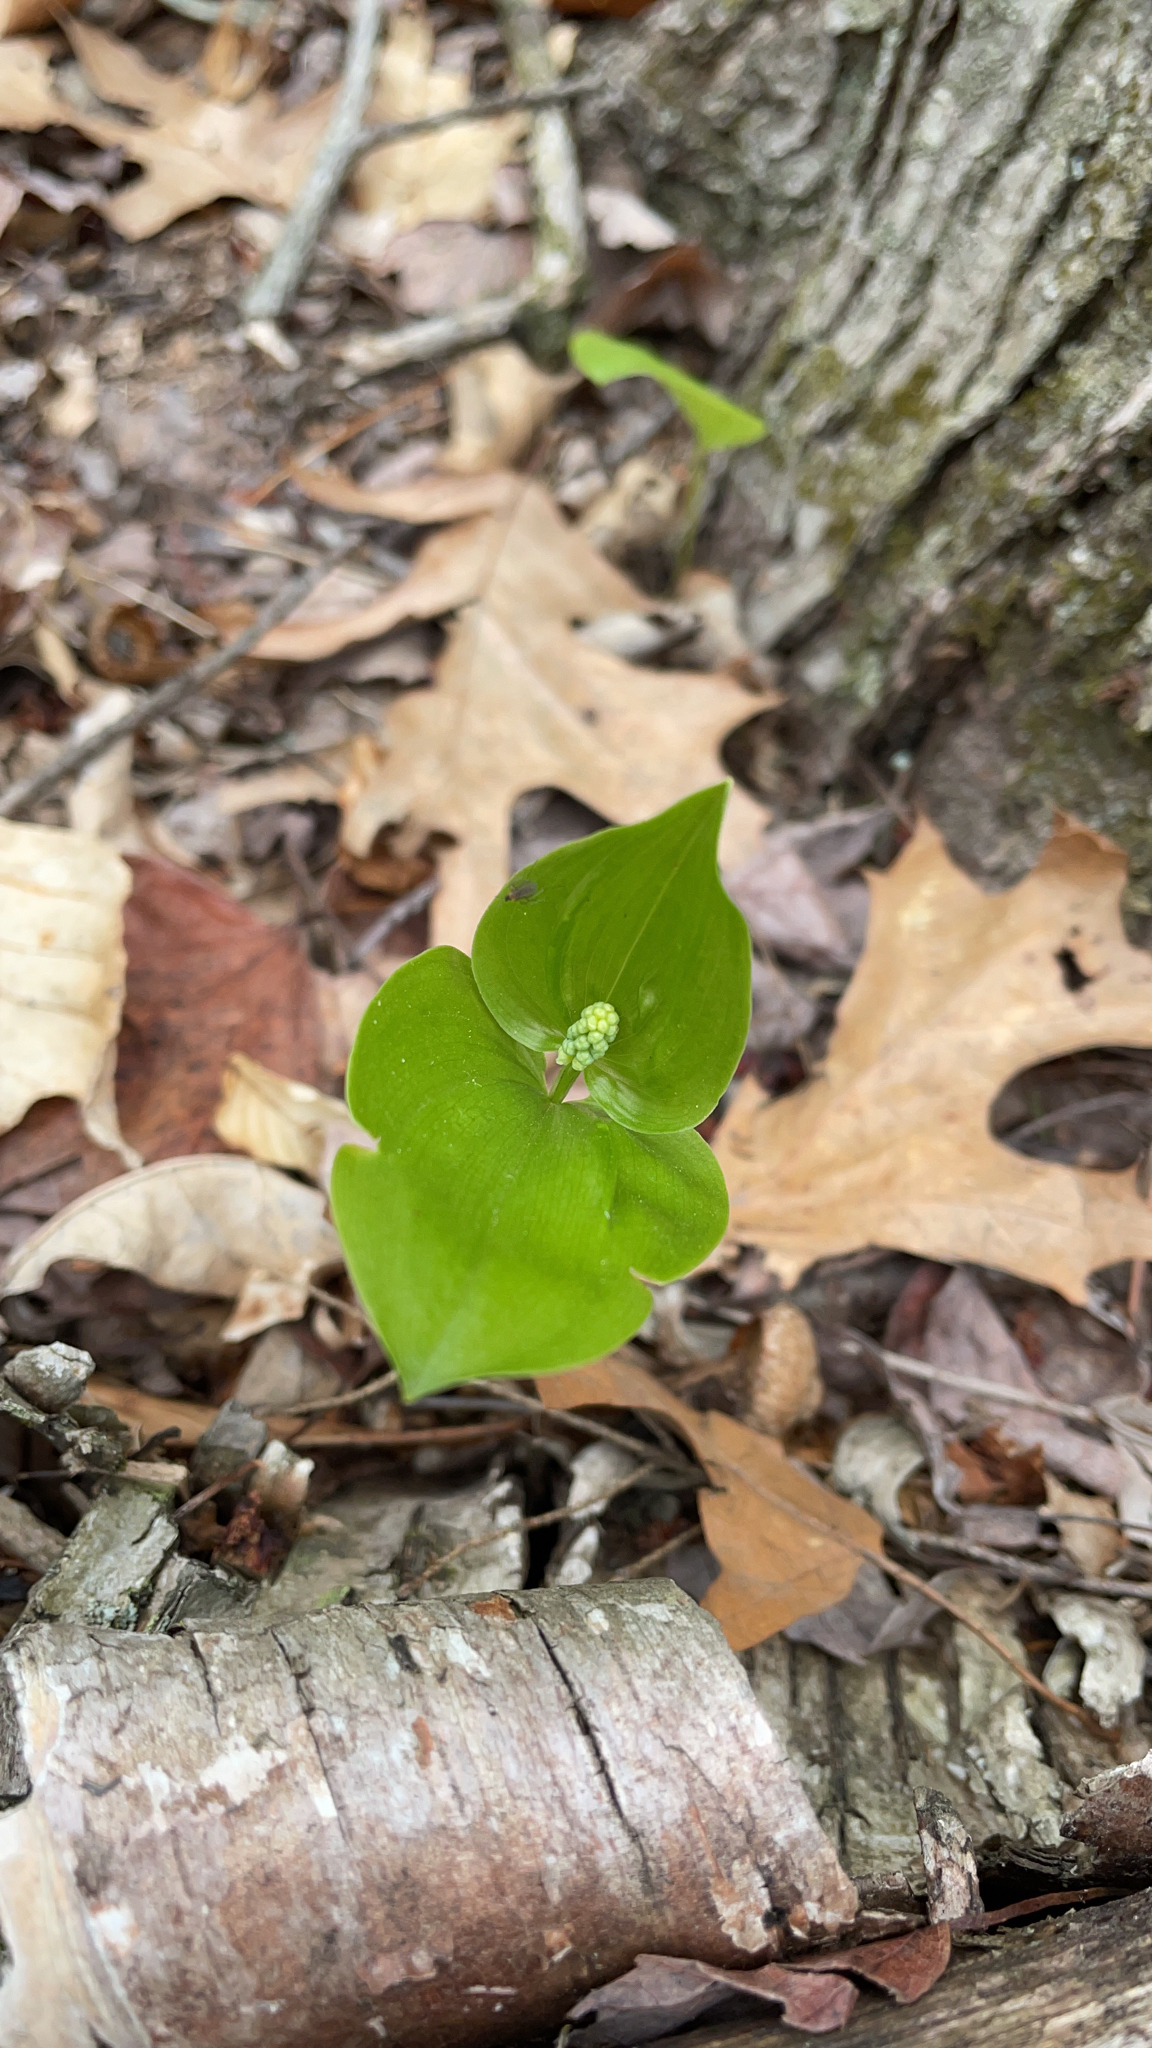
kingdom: Plantae
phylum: Tracheophyta
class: Liliopsida
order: Asparagales
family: Asparagaceae
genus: Maianthemum
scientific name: Maianthemum canadense
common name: False lily-of-the-valley
